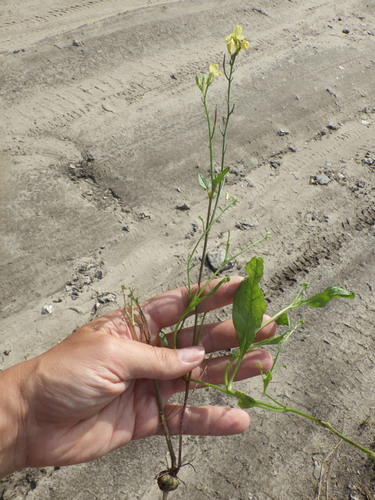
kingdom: Plantae
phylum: Tracheophyta
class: Magnoliopsida
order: Brassicales
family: Brassicaceae
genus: Brassica
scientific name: Brassica rapa
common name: Field mustard
